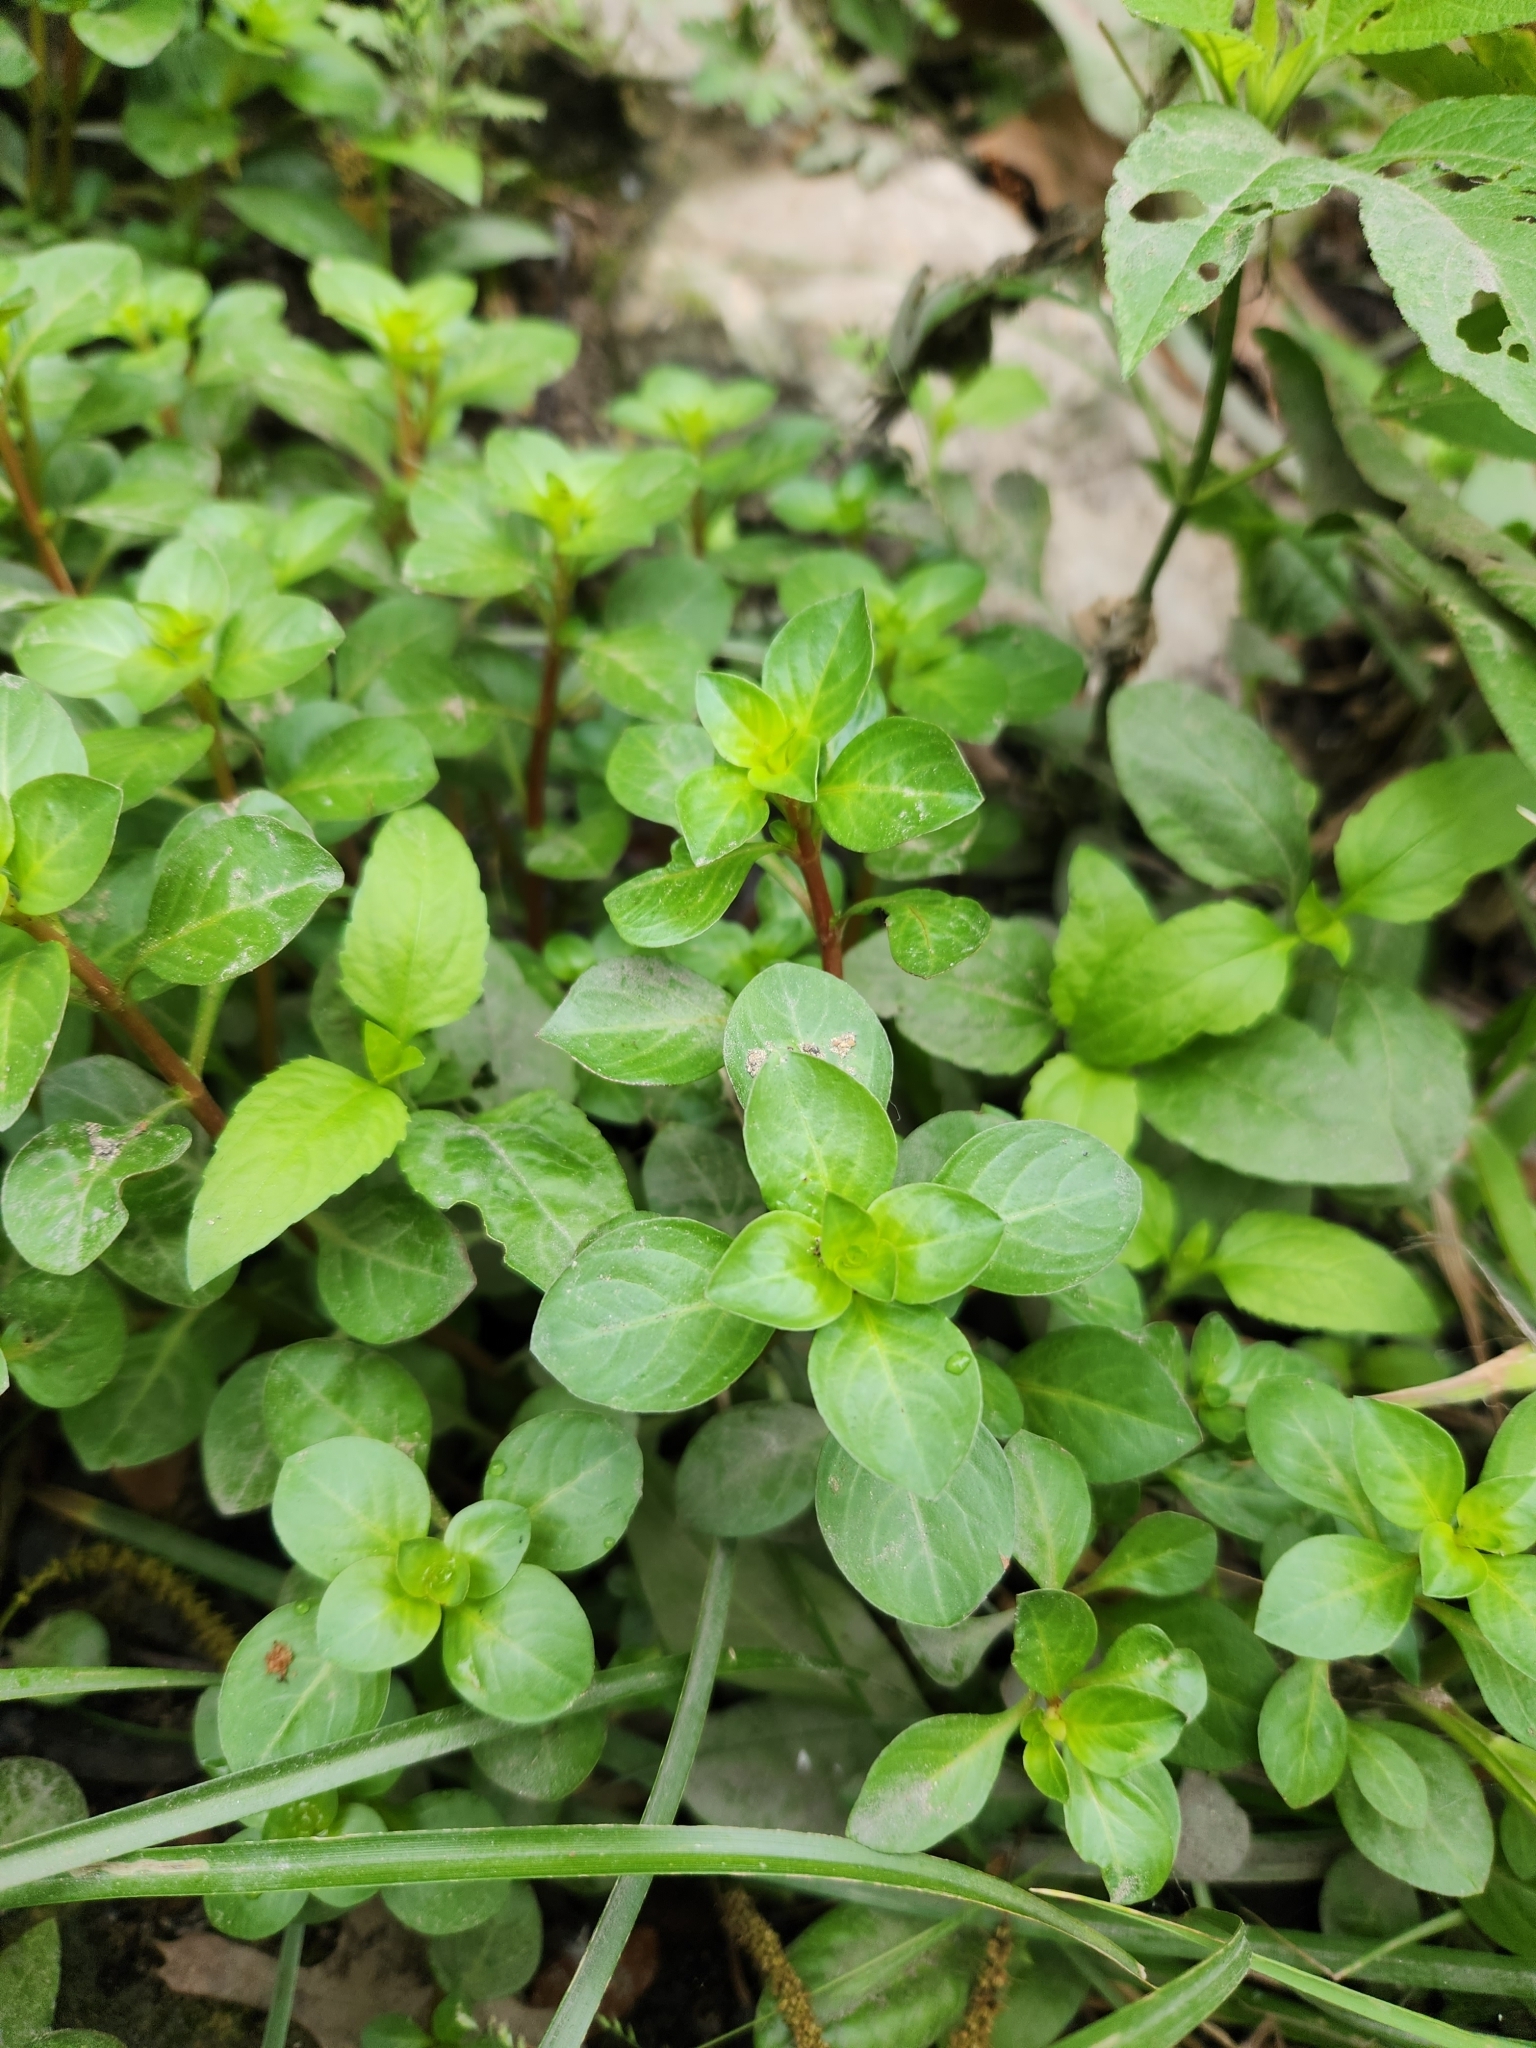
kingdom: Plantae
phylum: Tracheophyta
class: Magnoliopsida
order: Myrtales
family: Onagraceae
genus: Ludwigia
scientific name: Ludwigia repens
